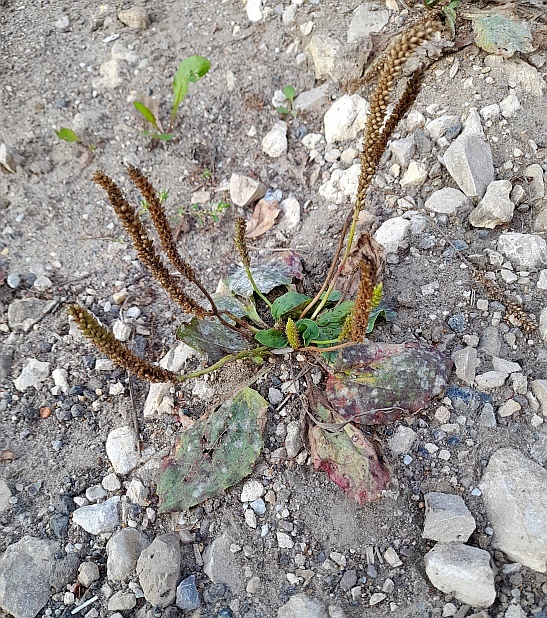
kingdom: Plantae
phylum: Tracheophyta
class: Magnoliopsida
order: Lamiales
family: Plantaginaceae
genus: Plantago
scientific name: Plantago major
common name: Common plantain
